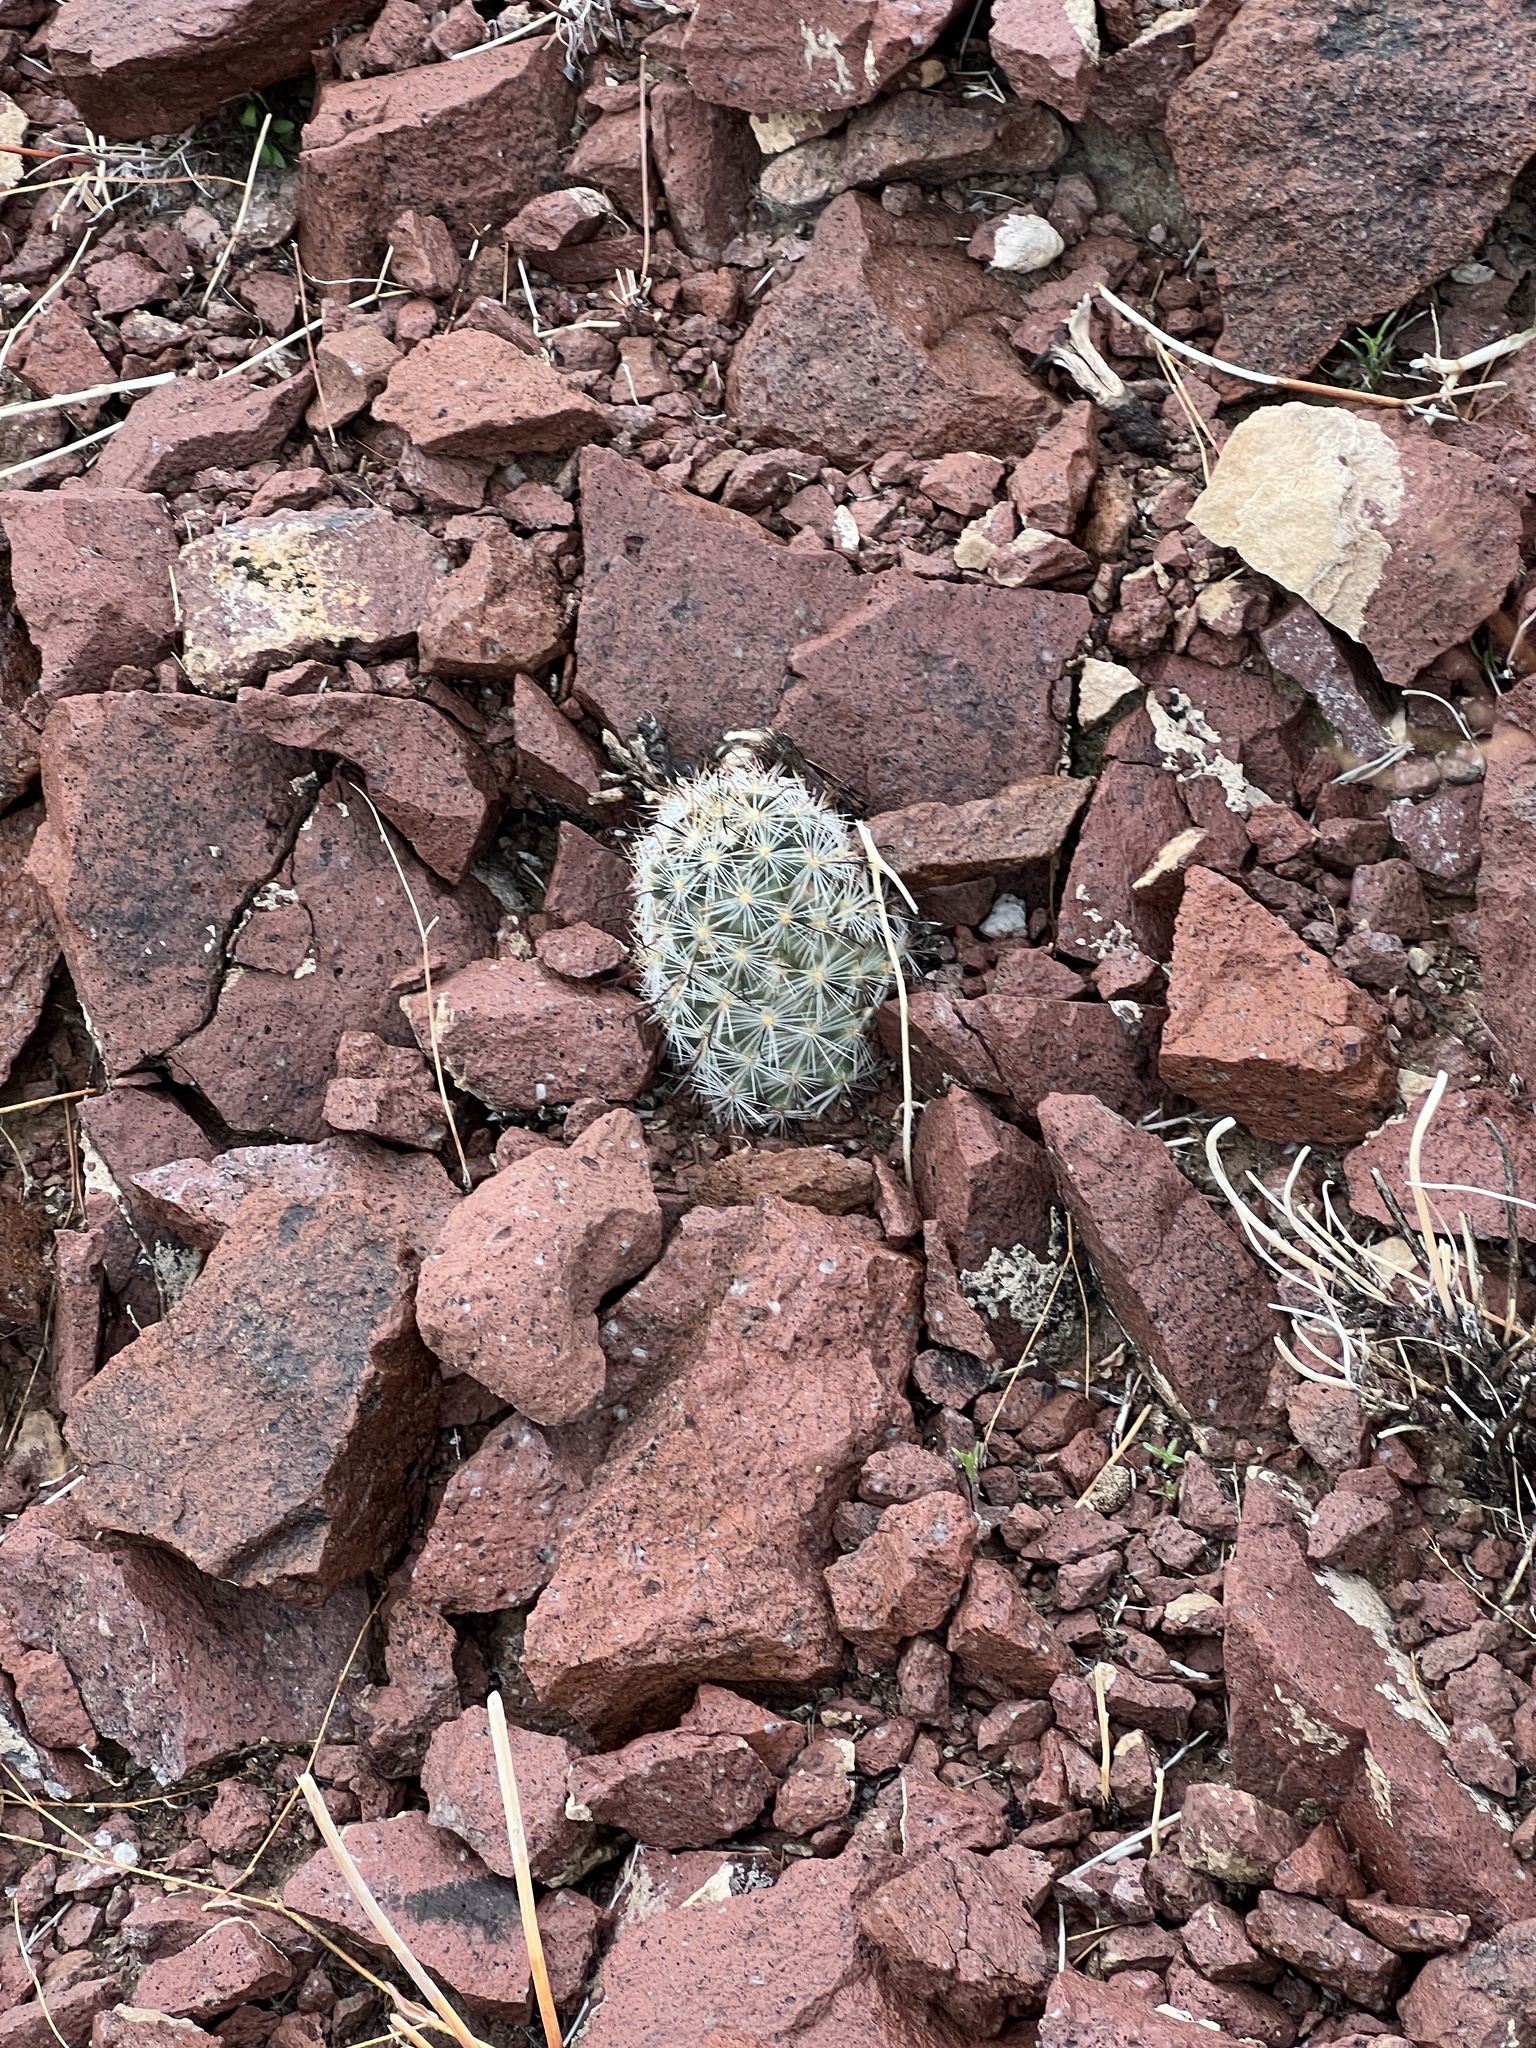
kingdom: Plantae
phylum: Tracheophyta
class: Magnoliopsida
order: Caryophyllales
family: Cactaceae
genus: Cochemiea
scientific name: Cochemiea tetrancistra
